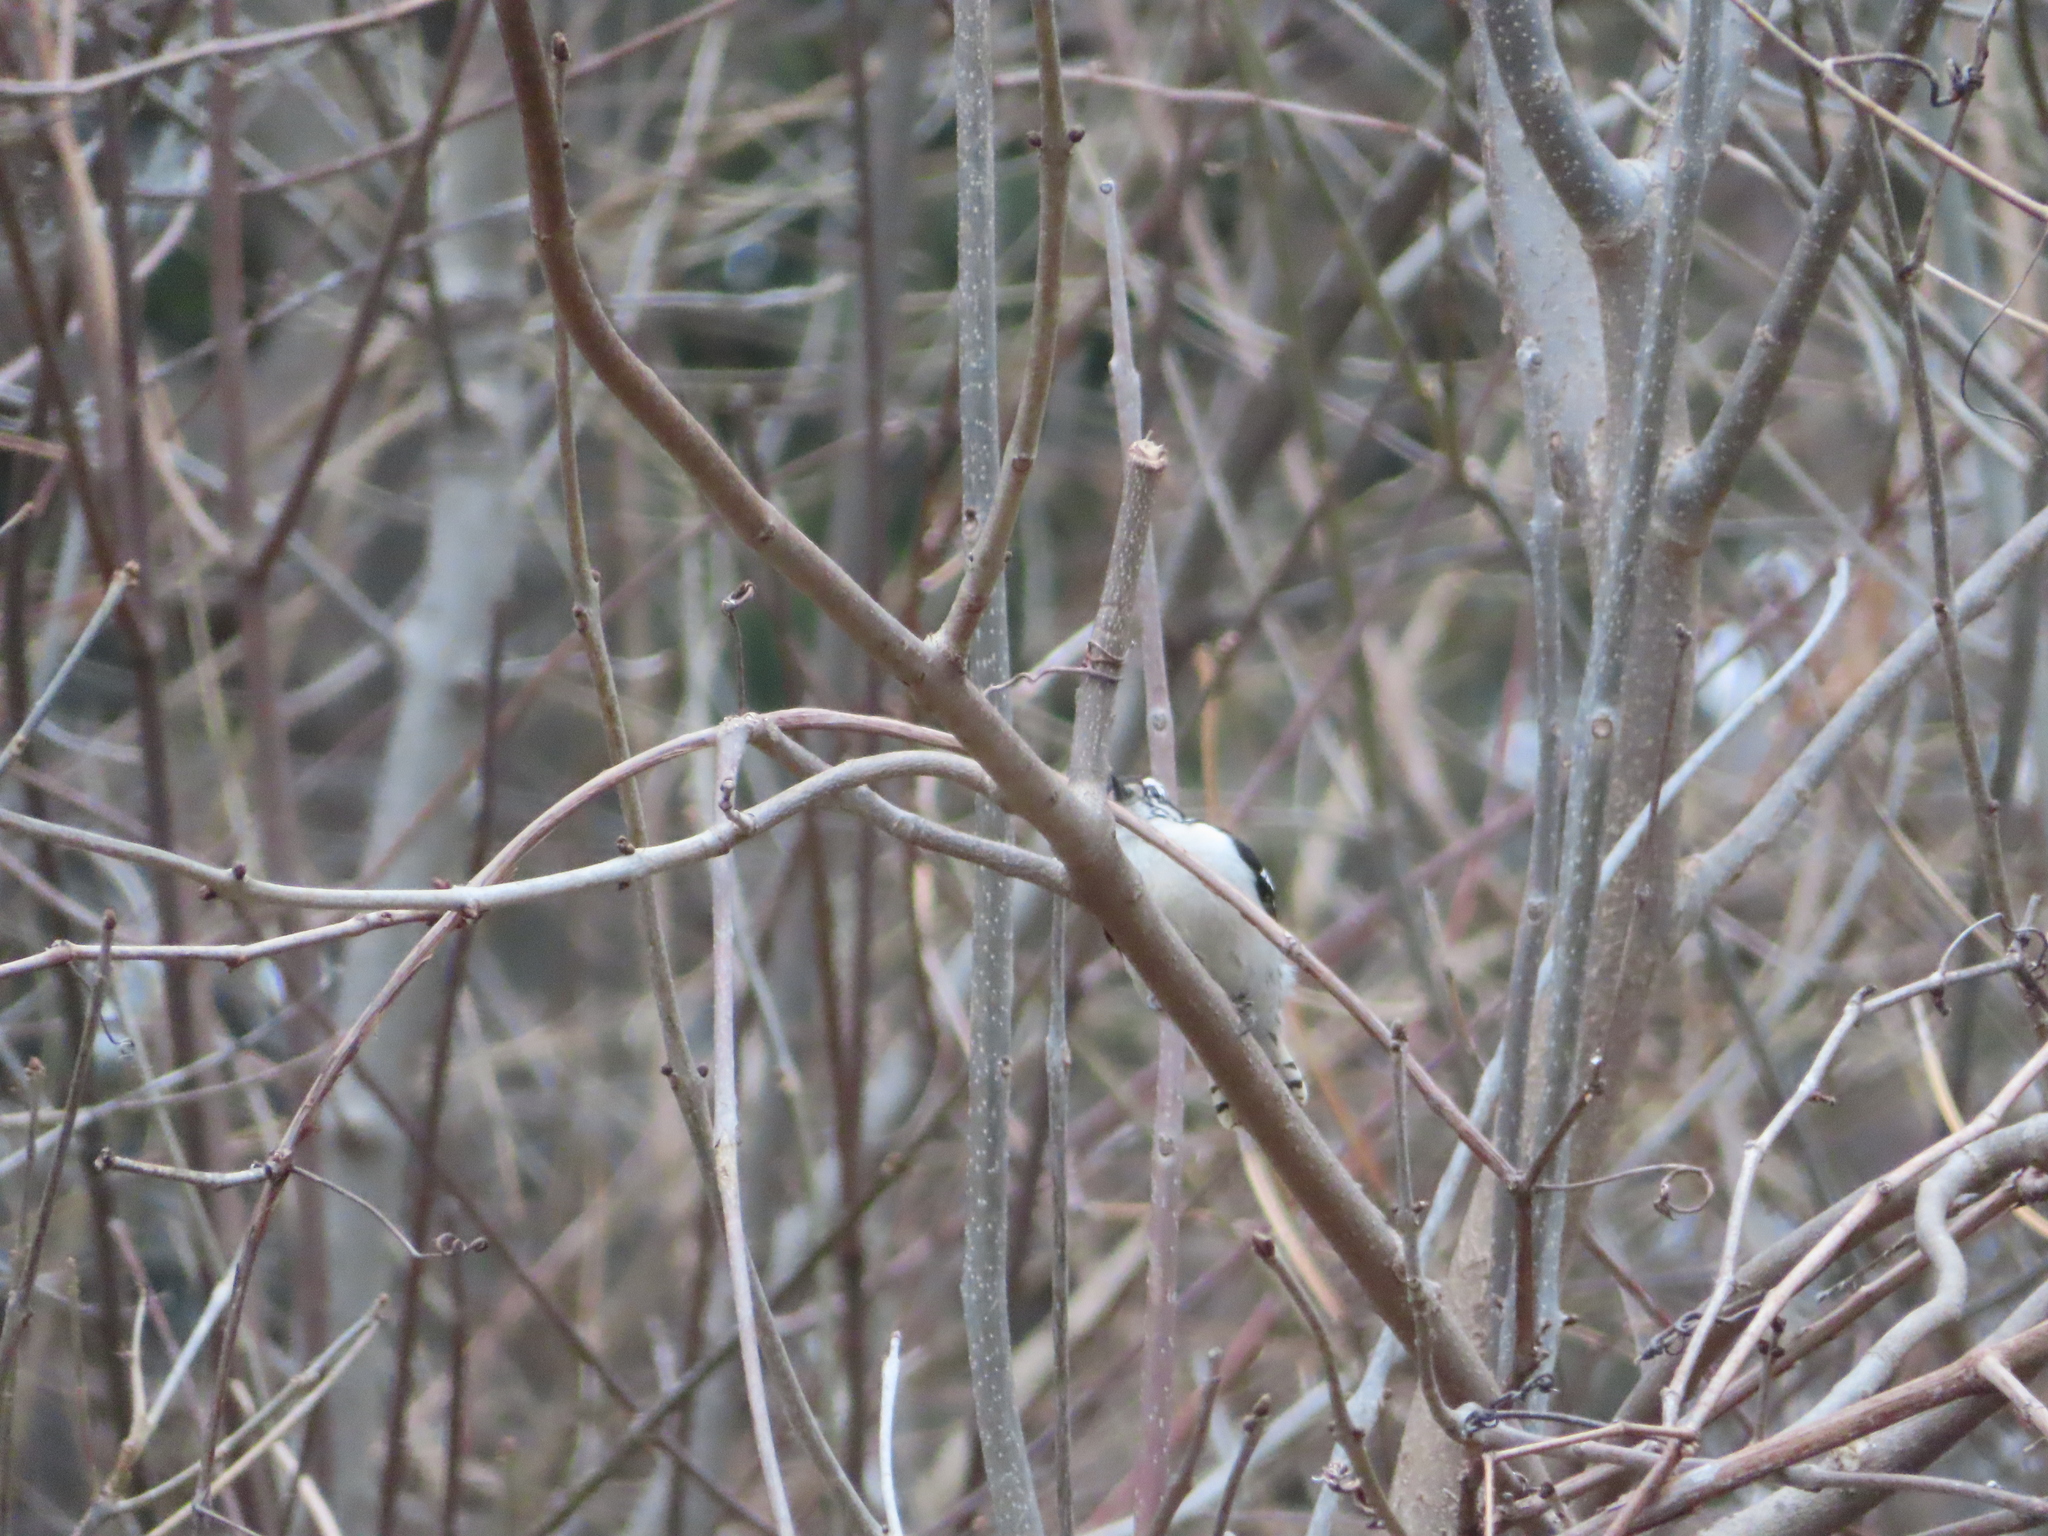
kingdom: Animalia
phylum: Chordata
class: Aves
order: Piciformes
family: Picidae
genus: Dryobates
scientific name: Dryobates pubescens
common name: Downy woodpecker
